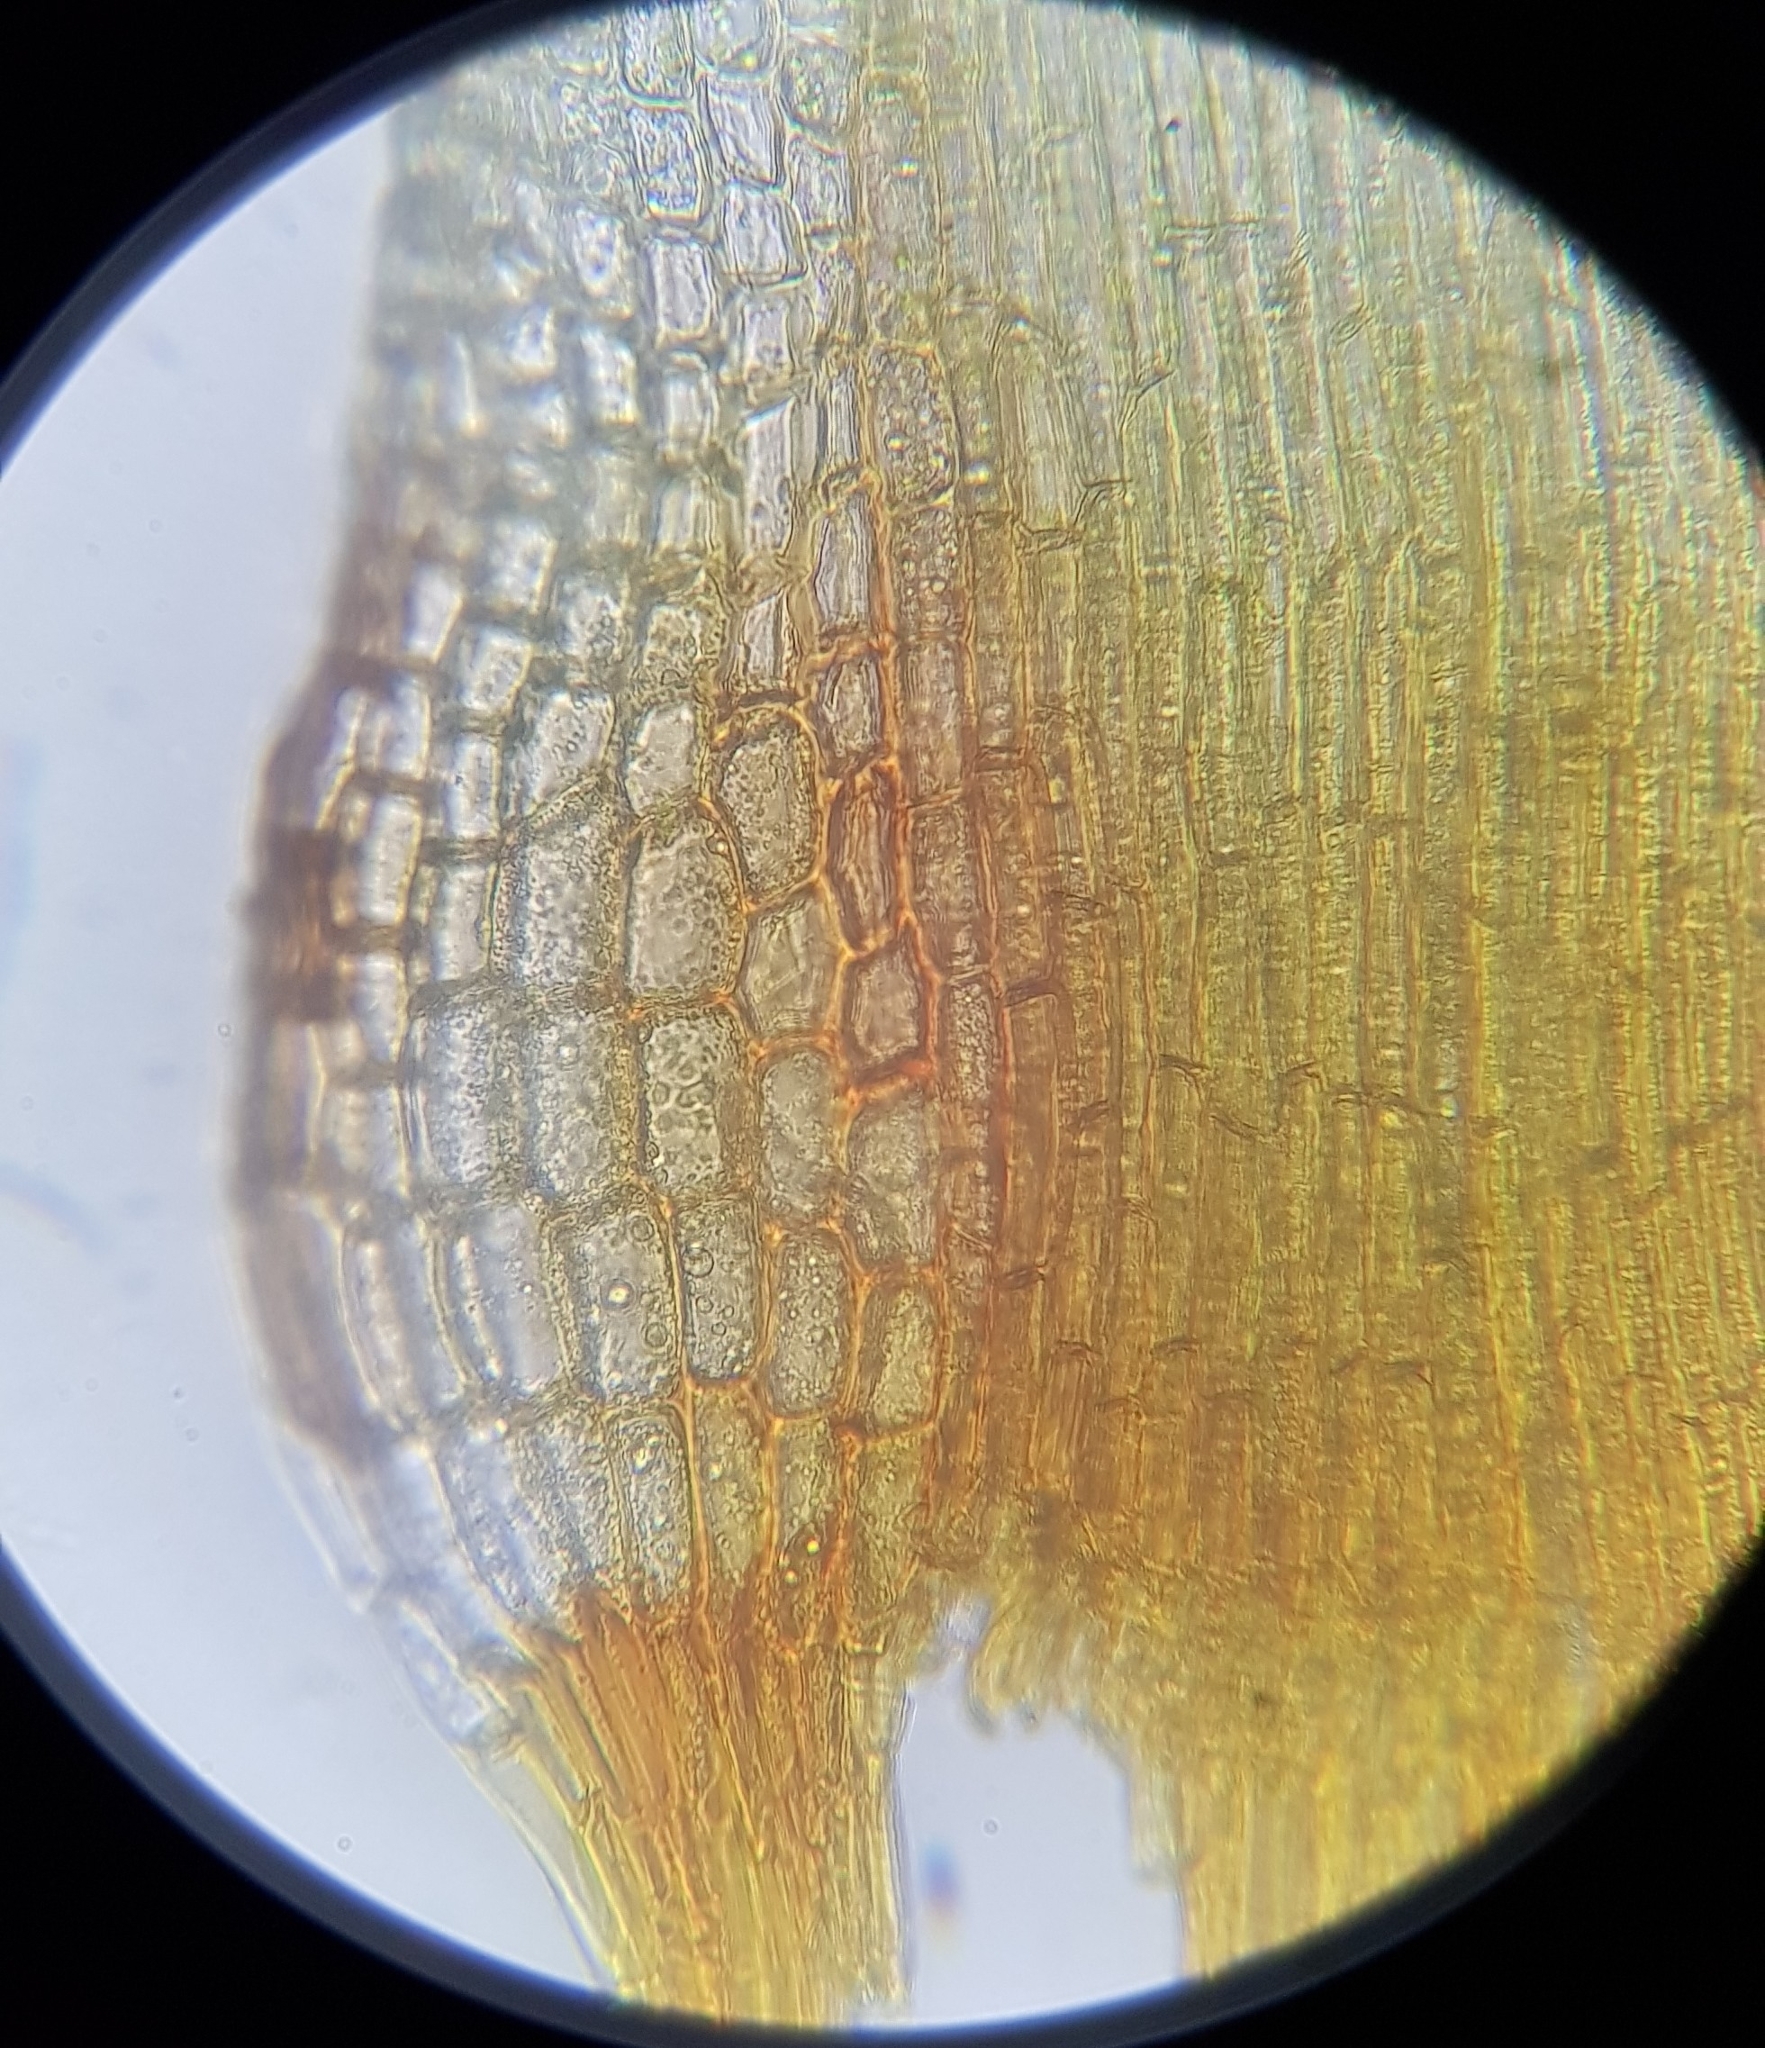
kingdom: Plantae
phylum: Bryophyta
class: Bryopsida
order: Dicranales
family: Leucobryaceae
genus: Campylopus
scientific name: Campylopus flexuosus
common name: Rusty swan-neck moss
